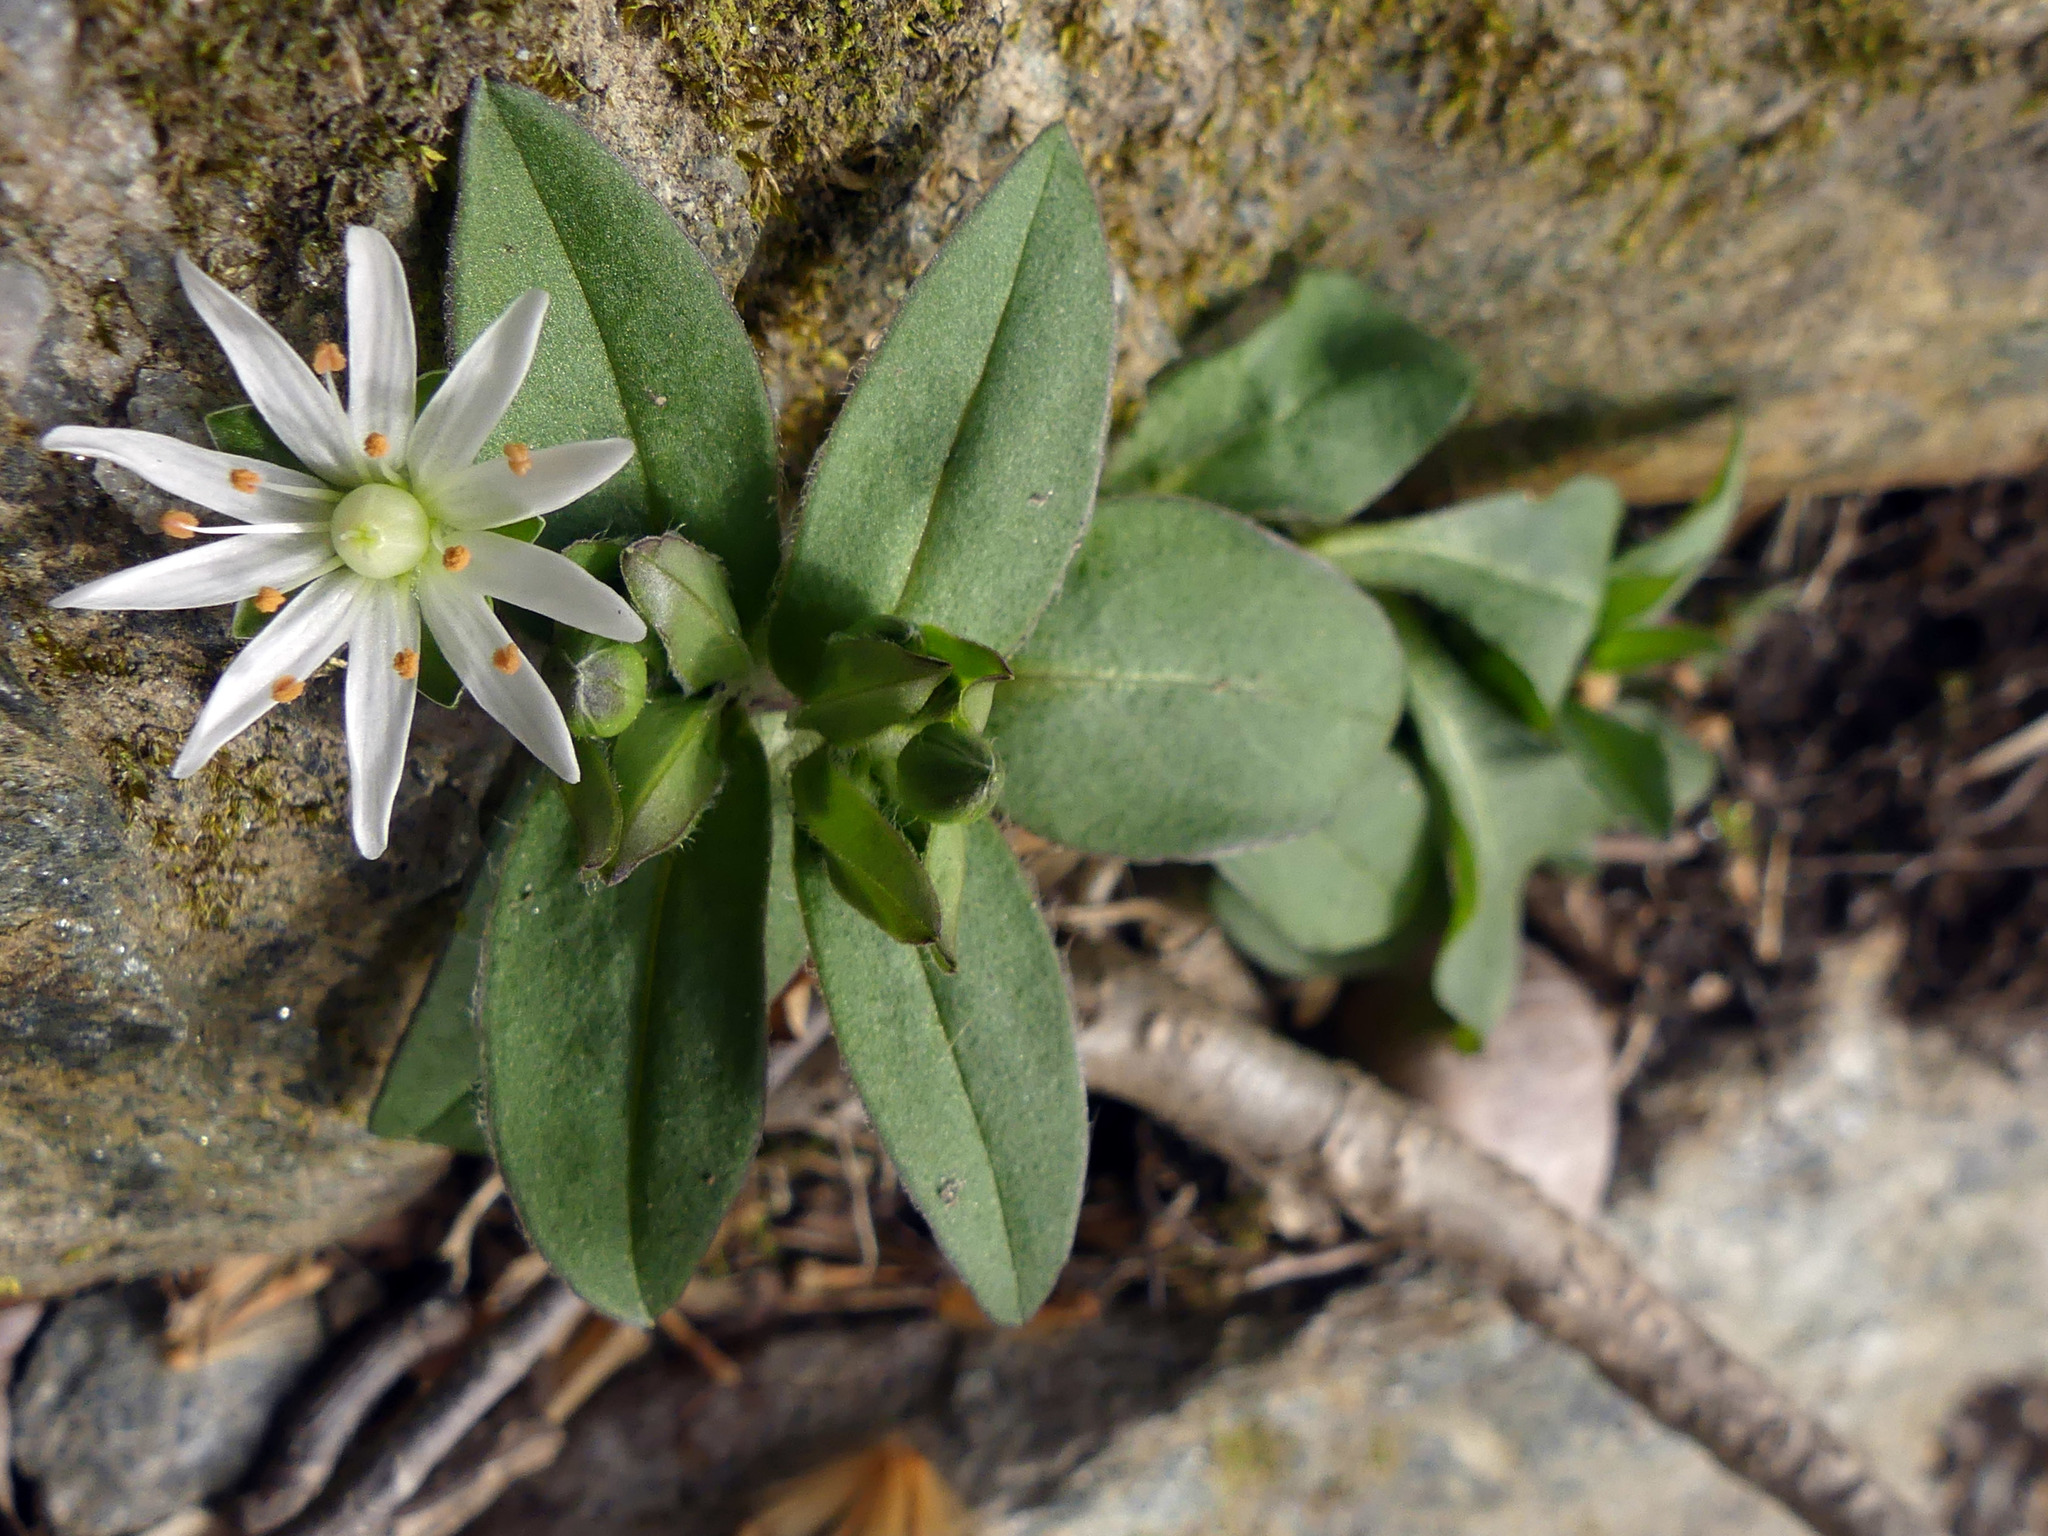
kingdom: Plantae
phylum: Tracheophyta
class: Magnoliopsida
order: Caryophyllales
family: Caryophyllaceae
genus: Stellaria
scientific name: Stellaria pubera
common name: Star chickweed
